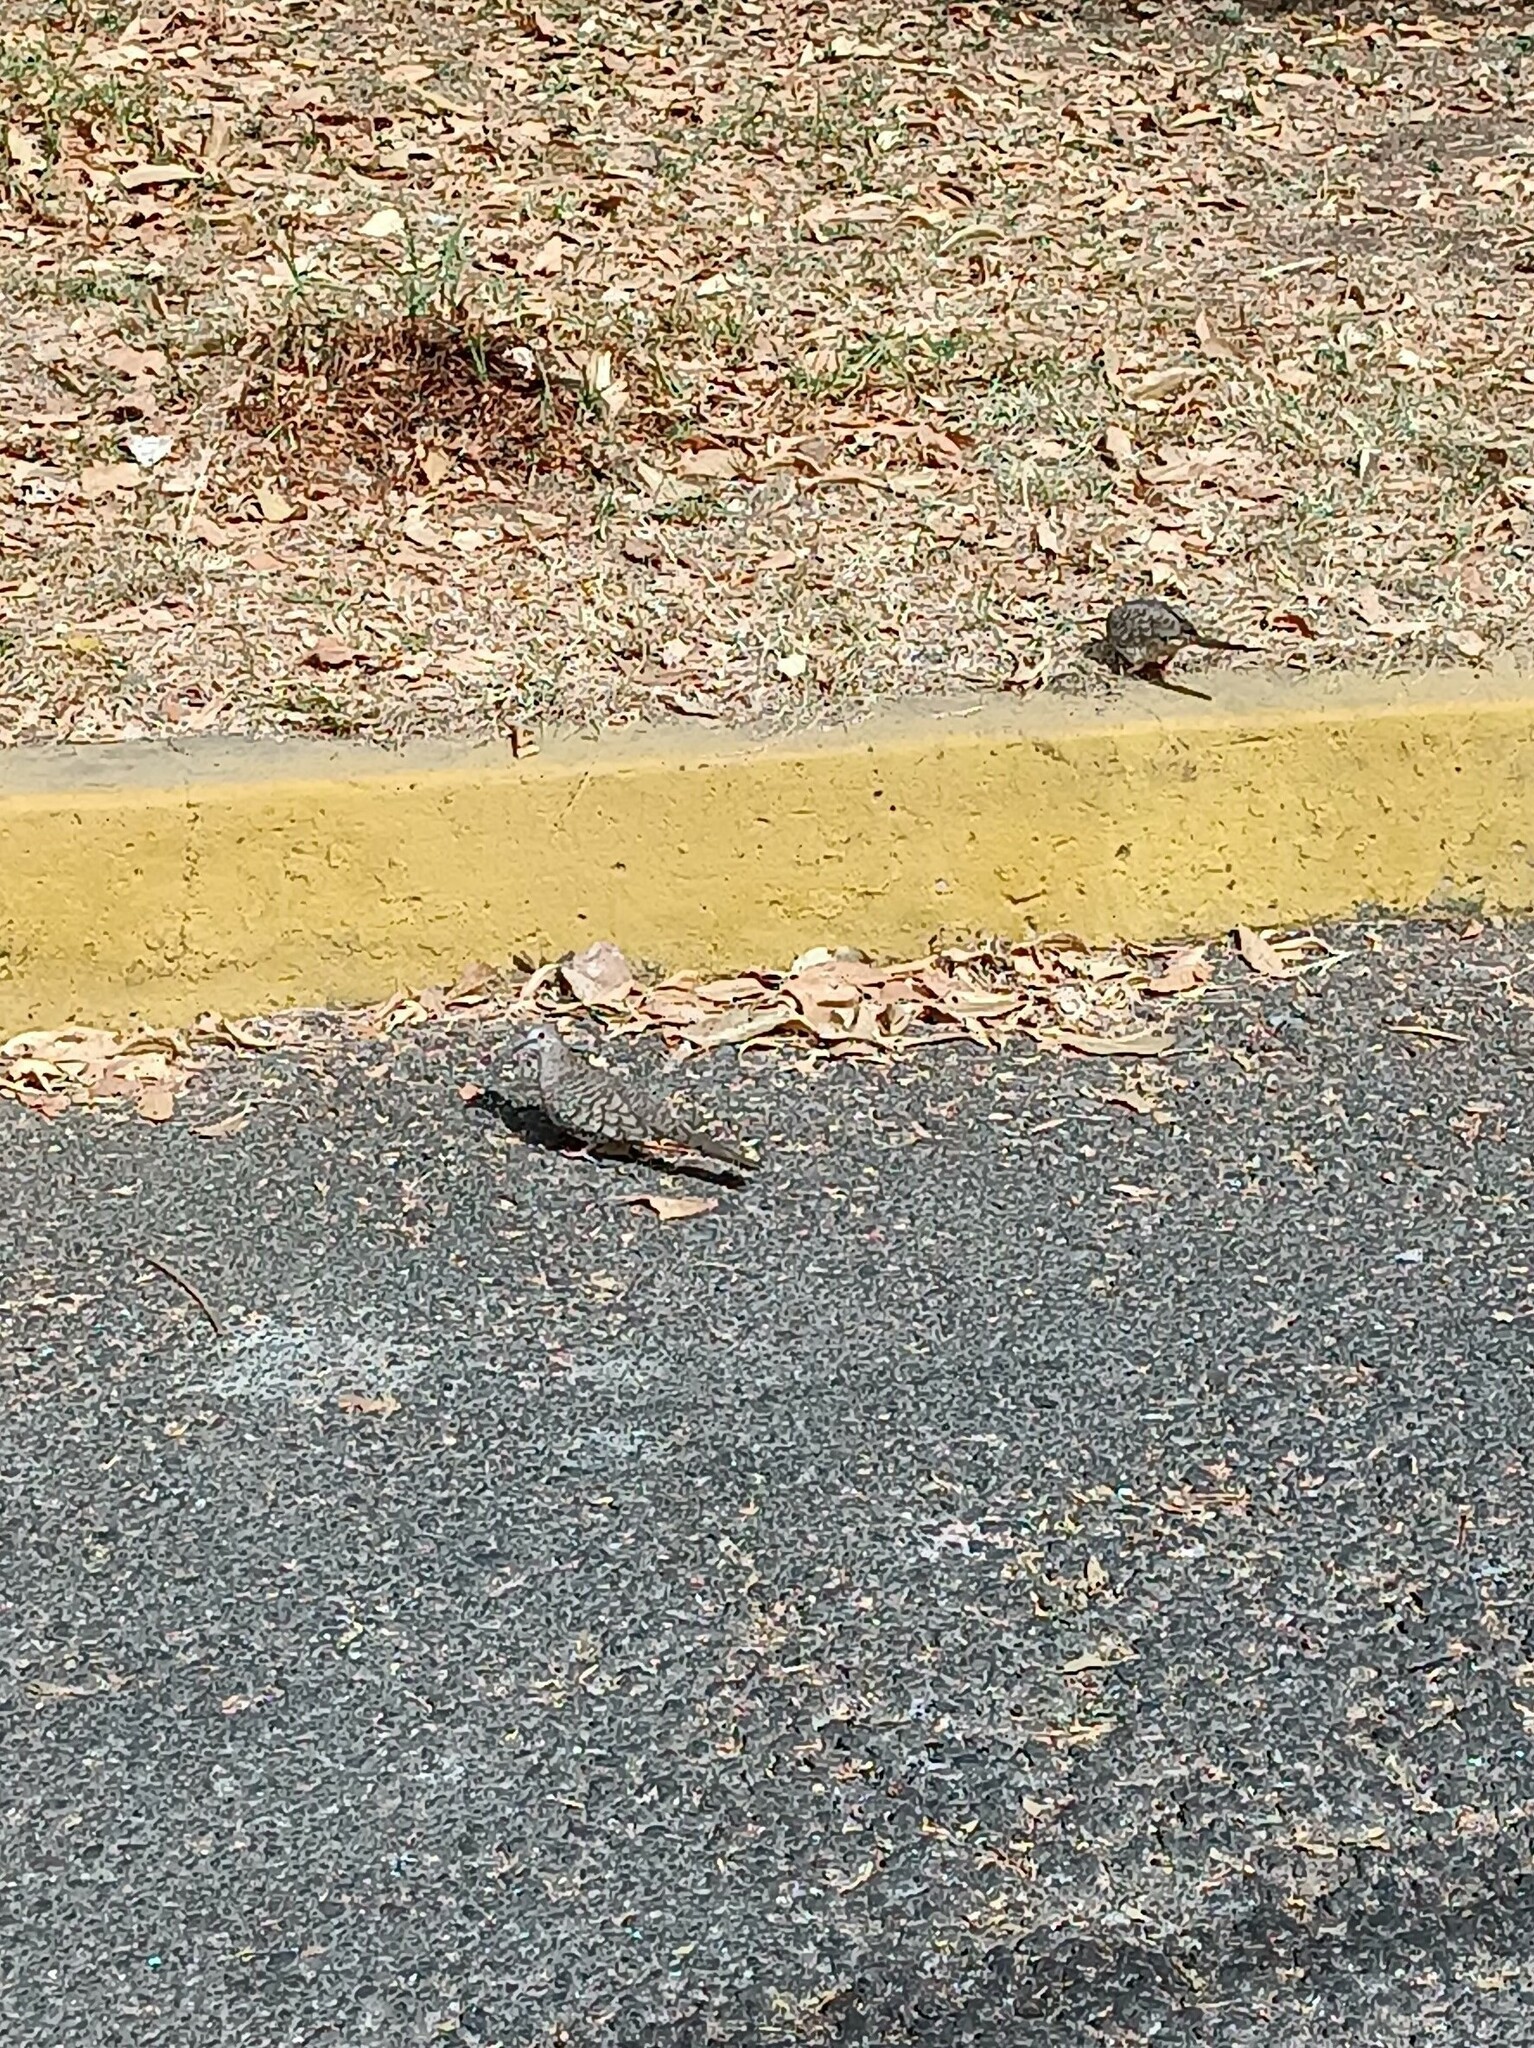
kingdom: Animalia
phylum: Chordata
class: Aves
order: Columbiformes
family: Columbidae
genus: Columbina
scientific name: Columbina inca
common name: Inca dove
